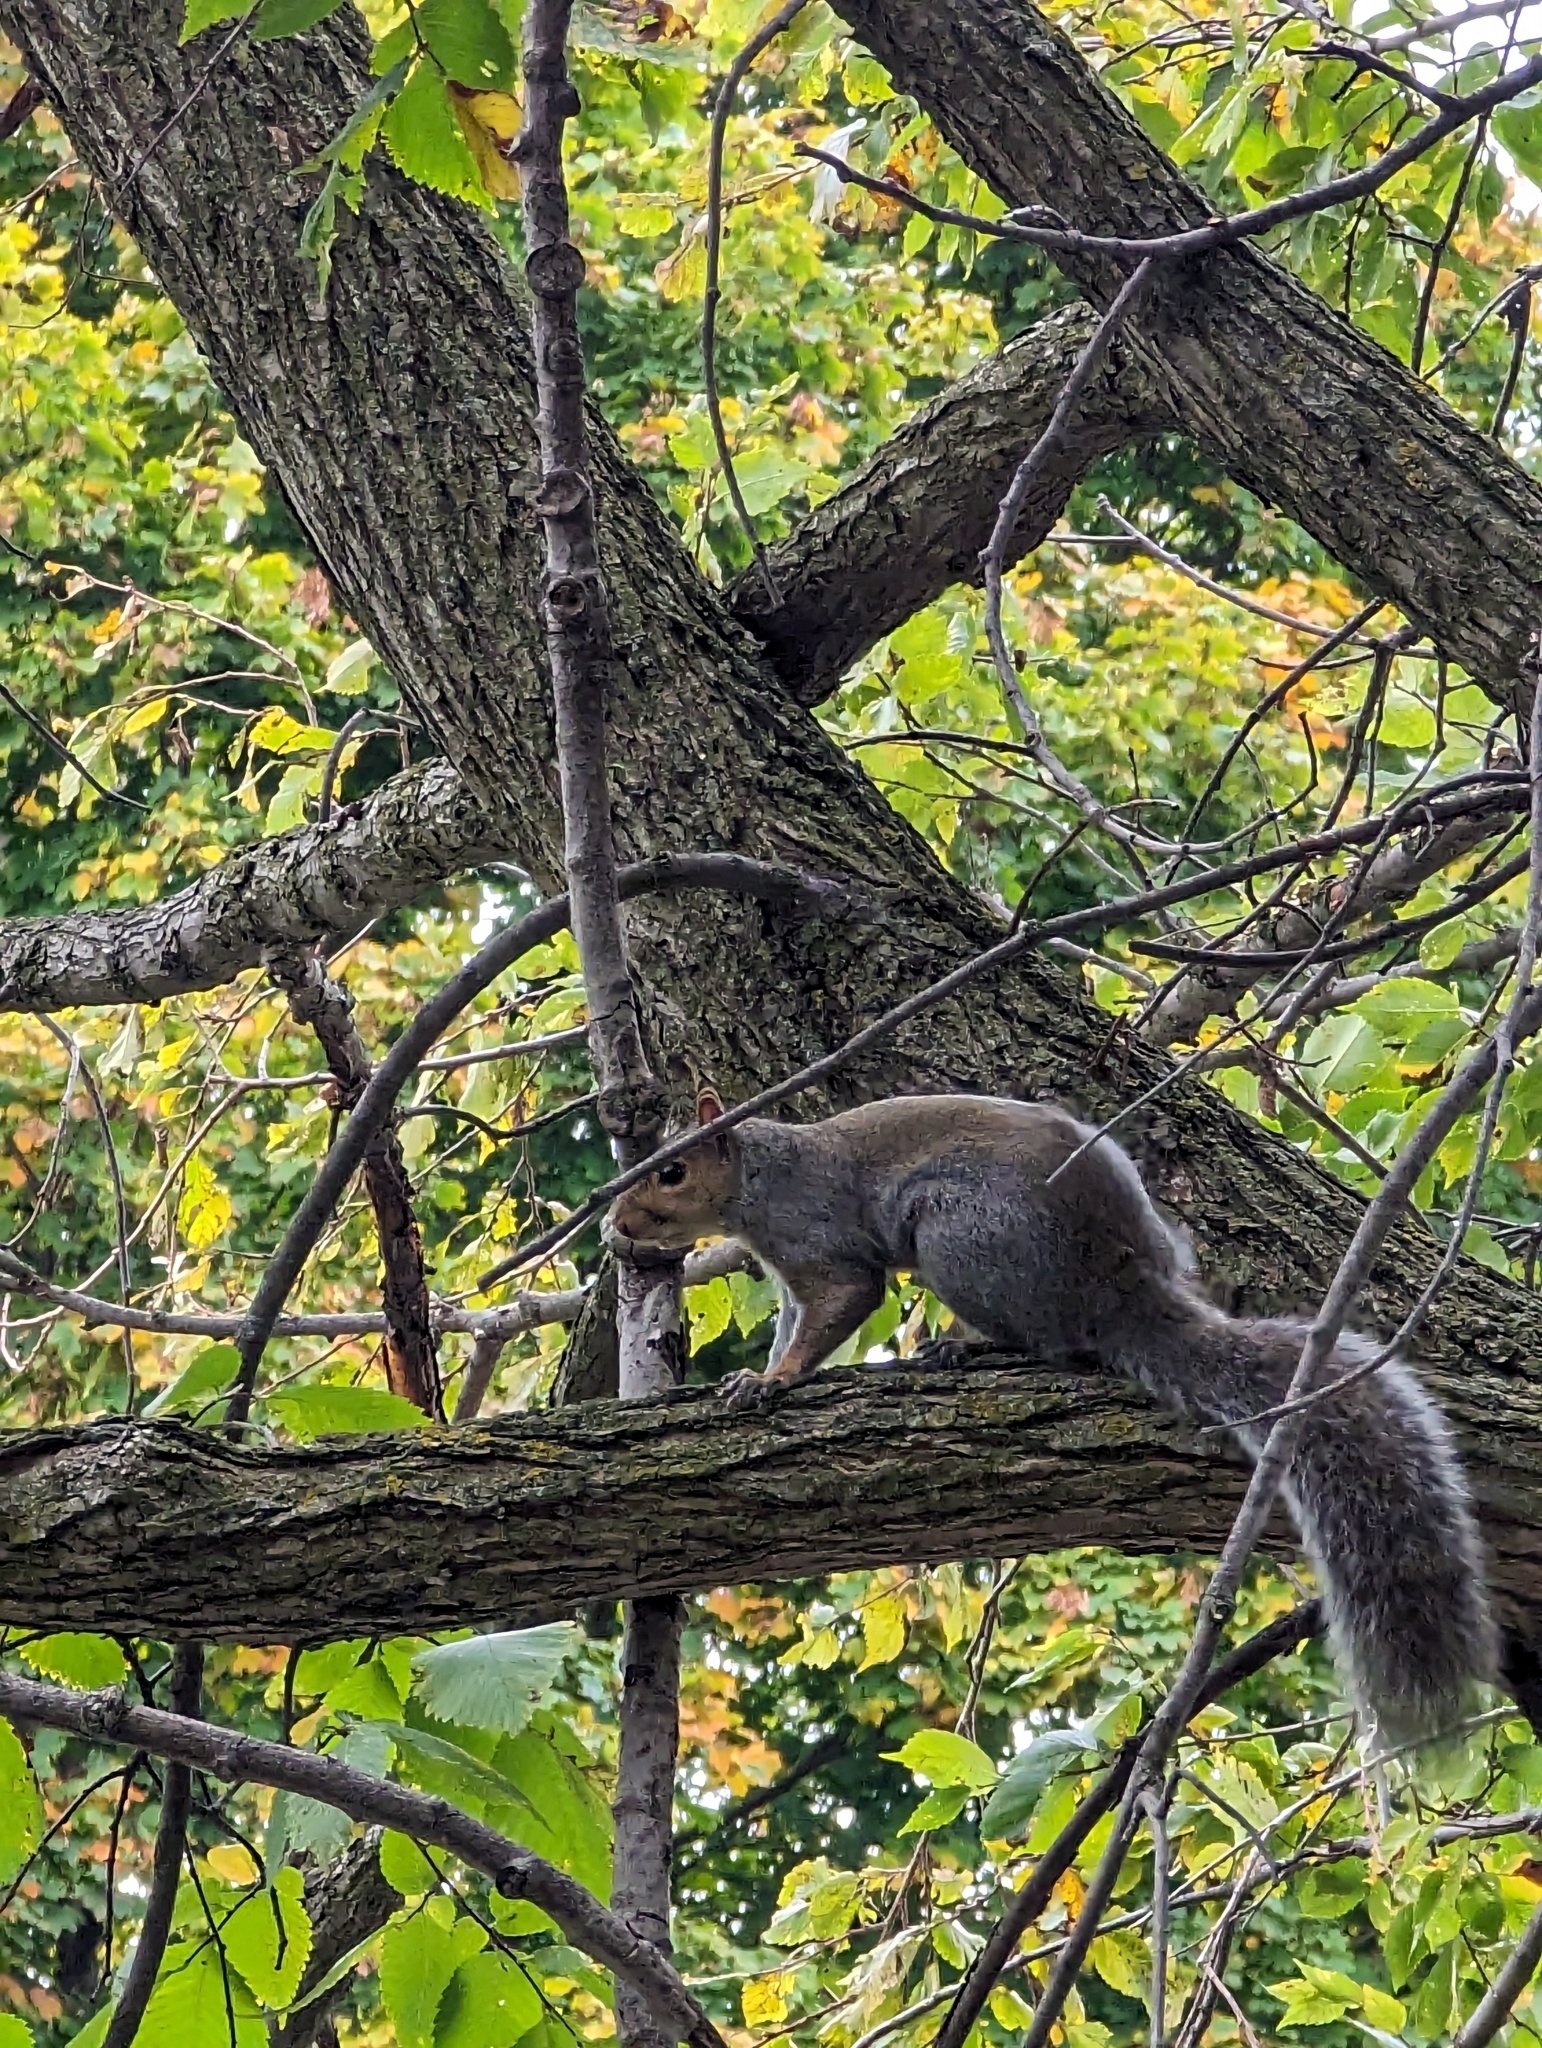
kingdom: Animalia
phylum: Chordata
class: Mammalia
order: Rodentia
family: Sciuridae
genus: Sciurus
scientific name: Sciurus carolinensis
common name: Eastern gray squirrel
